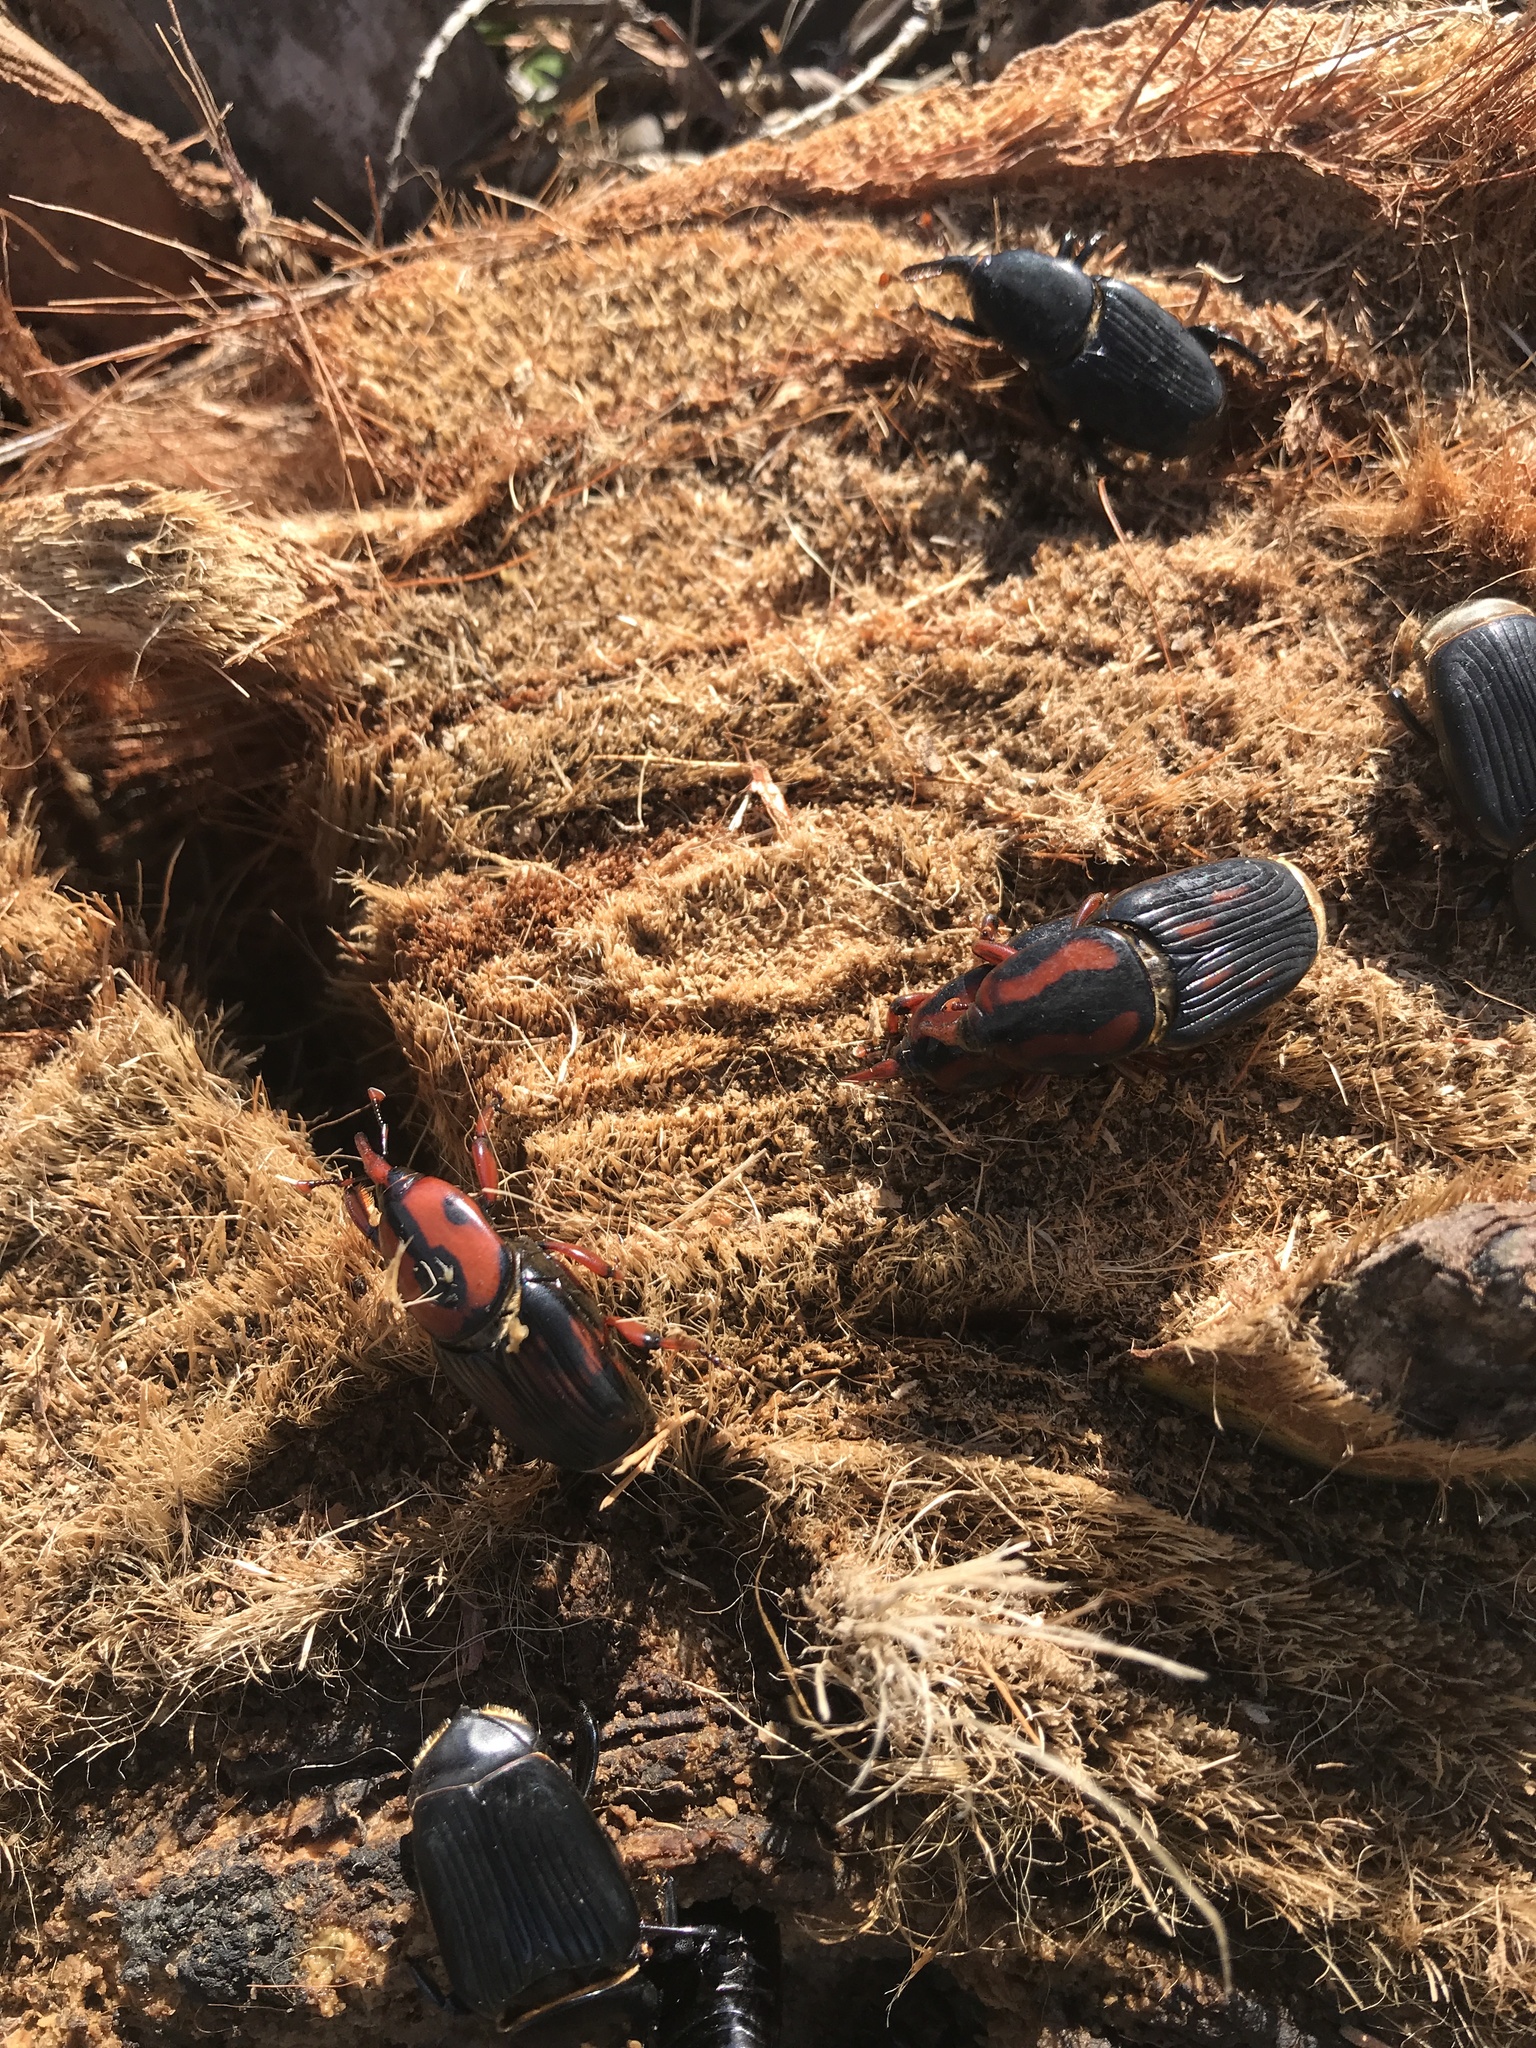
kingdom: Animalia
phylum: Arthropoda
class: Insecta
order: Coleoptera
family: Dryophthoridae
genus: Rhynchophorus
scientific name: Rhynchophorus cruentatus
